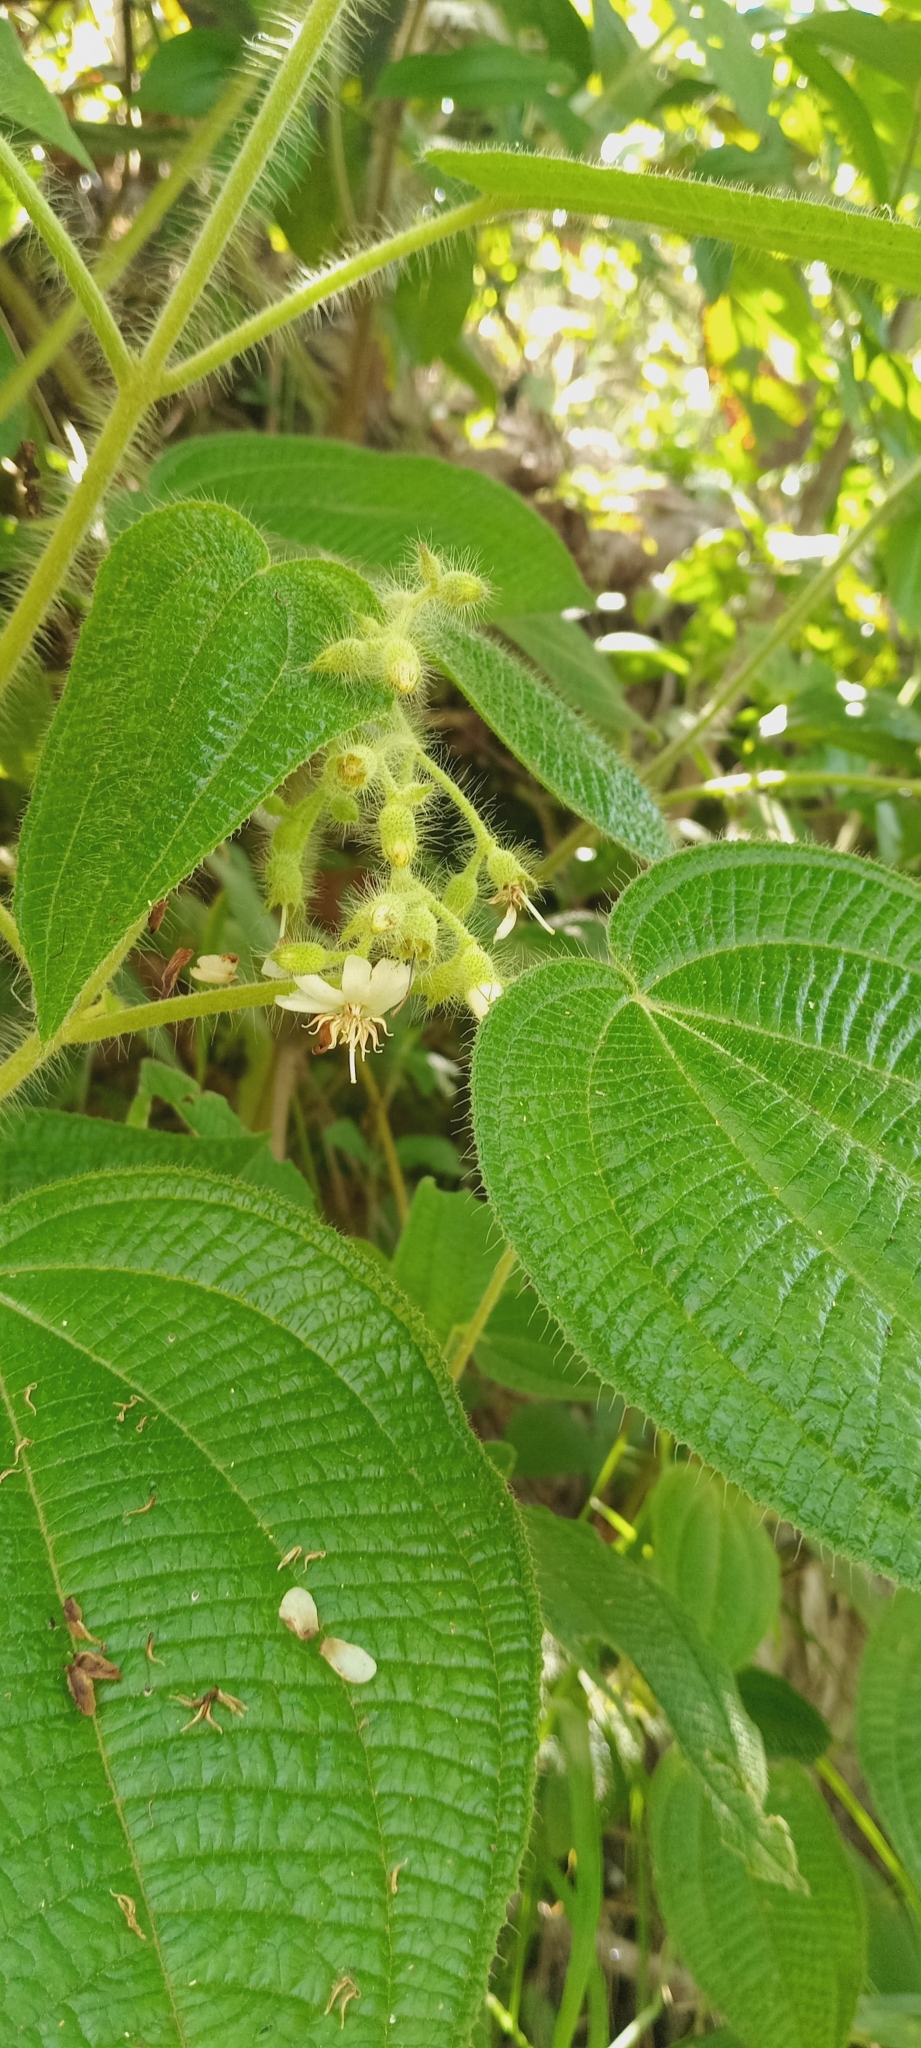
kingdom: Plantae
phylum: Tracheophyta
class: Magnoliopsida
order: Myrtales
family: Melastomataceae
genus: Miconia
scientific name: Miconia octona
